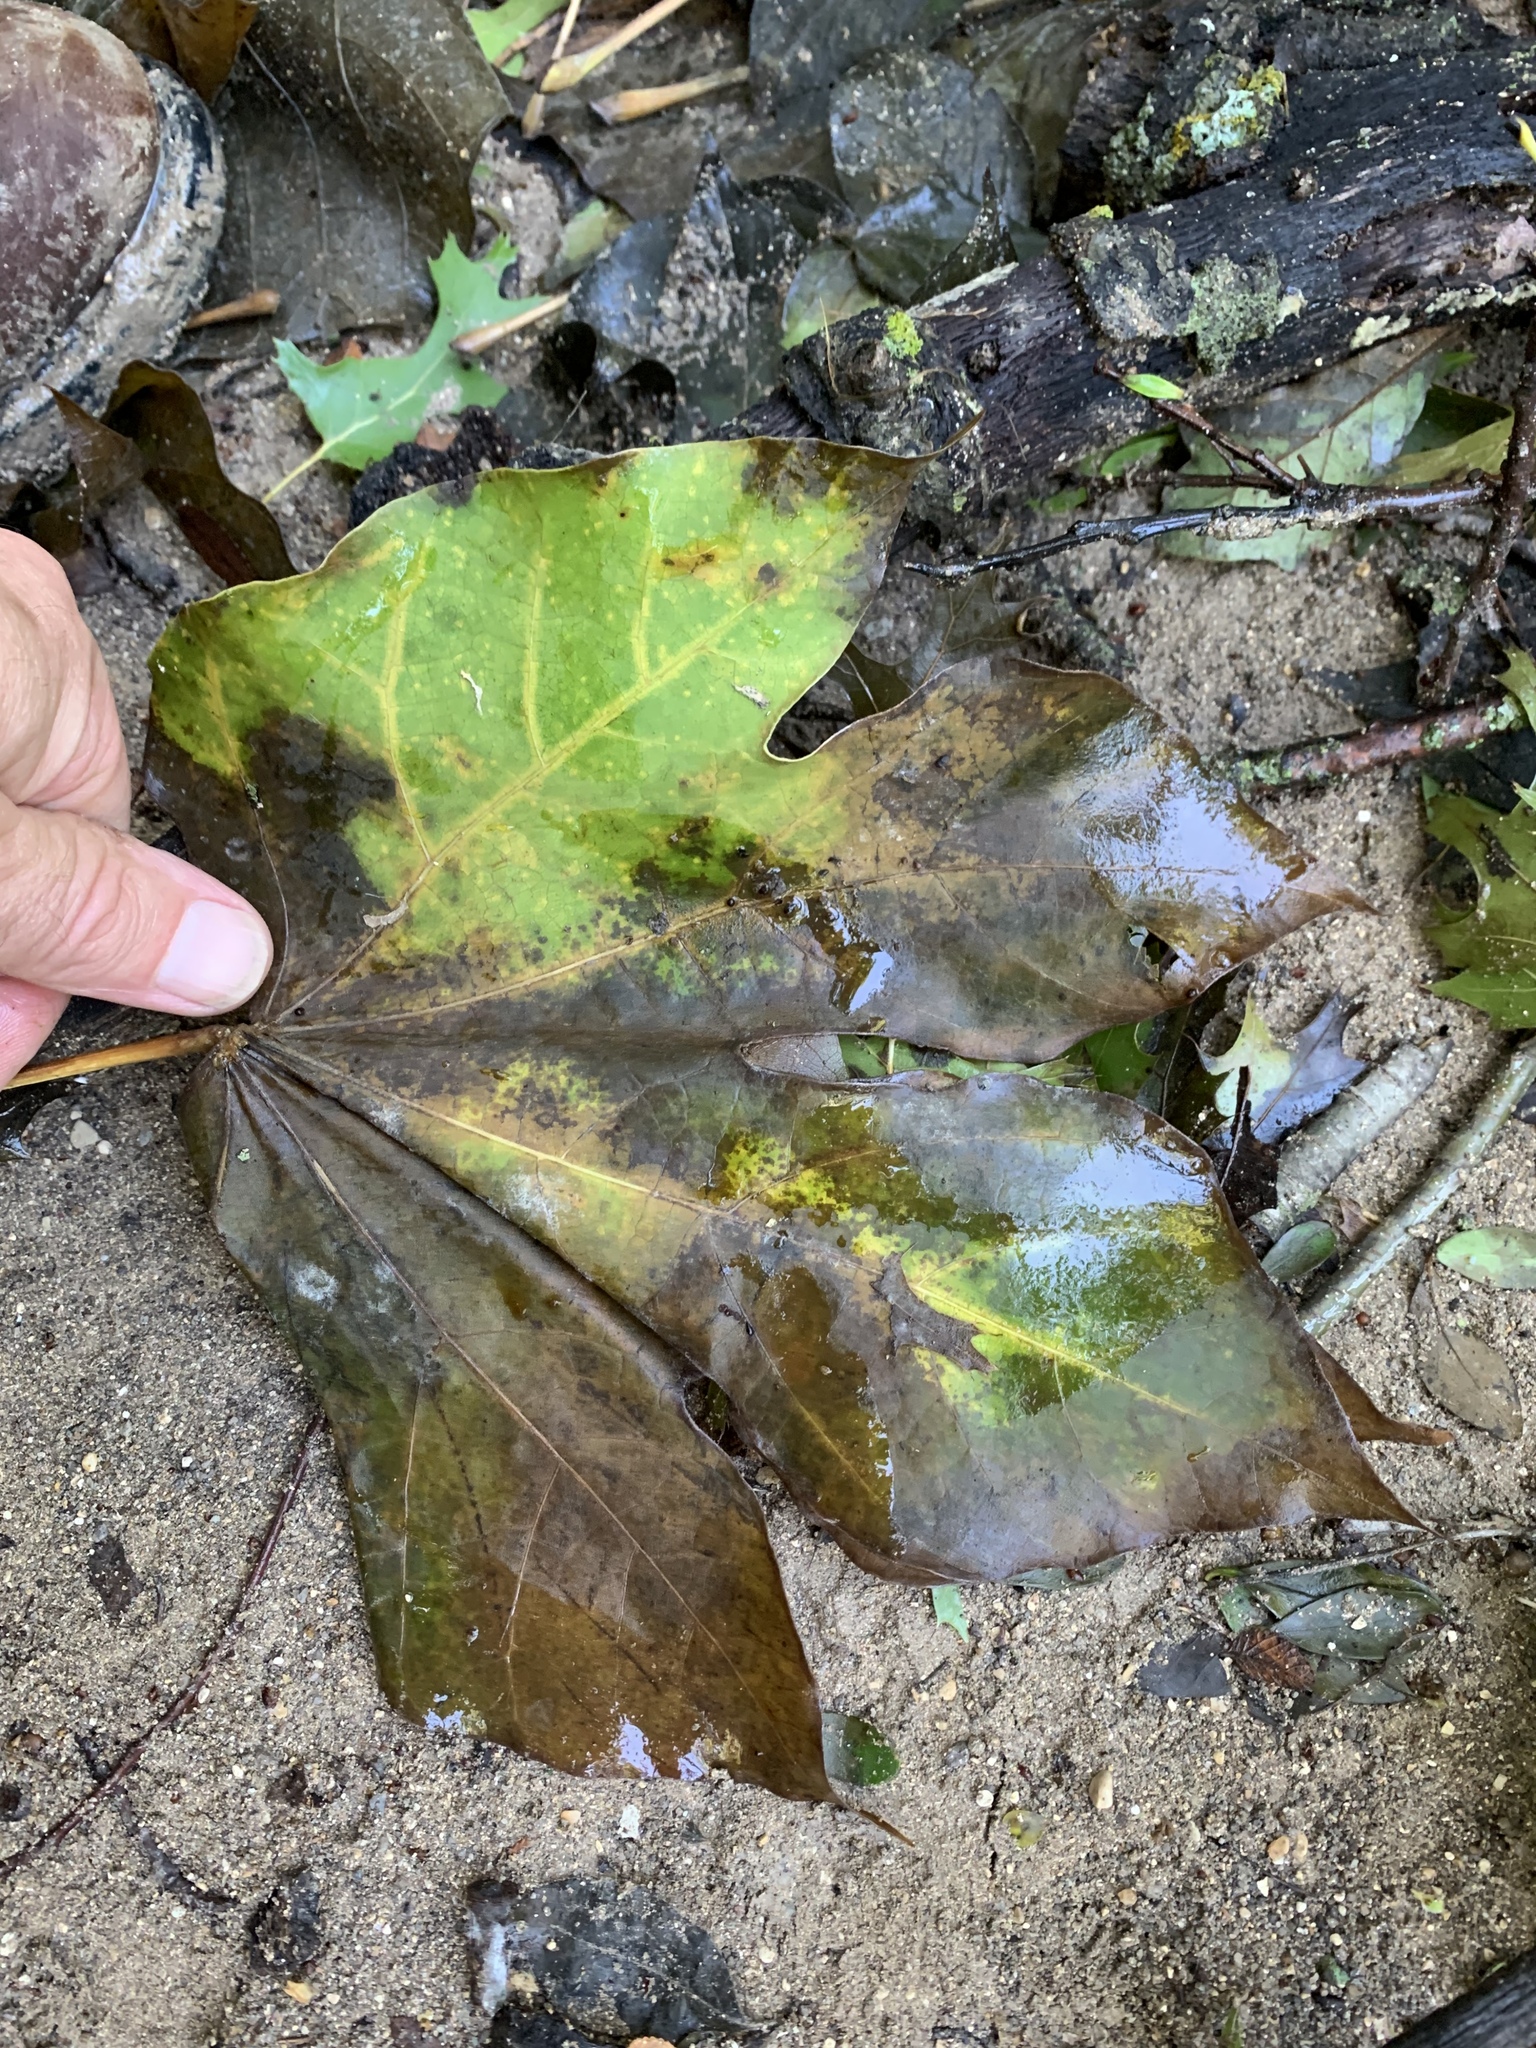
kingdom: Plantae
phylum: Tracheophyta
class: Magnoliopsida
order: Malvales
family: Malvaceae
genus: Firmiana
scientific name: Firmiana simplex
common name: Chinese parasoltree
